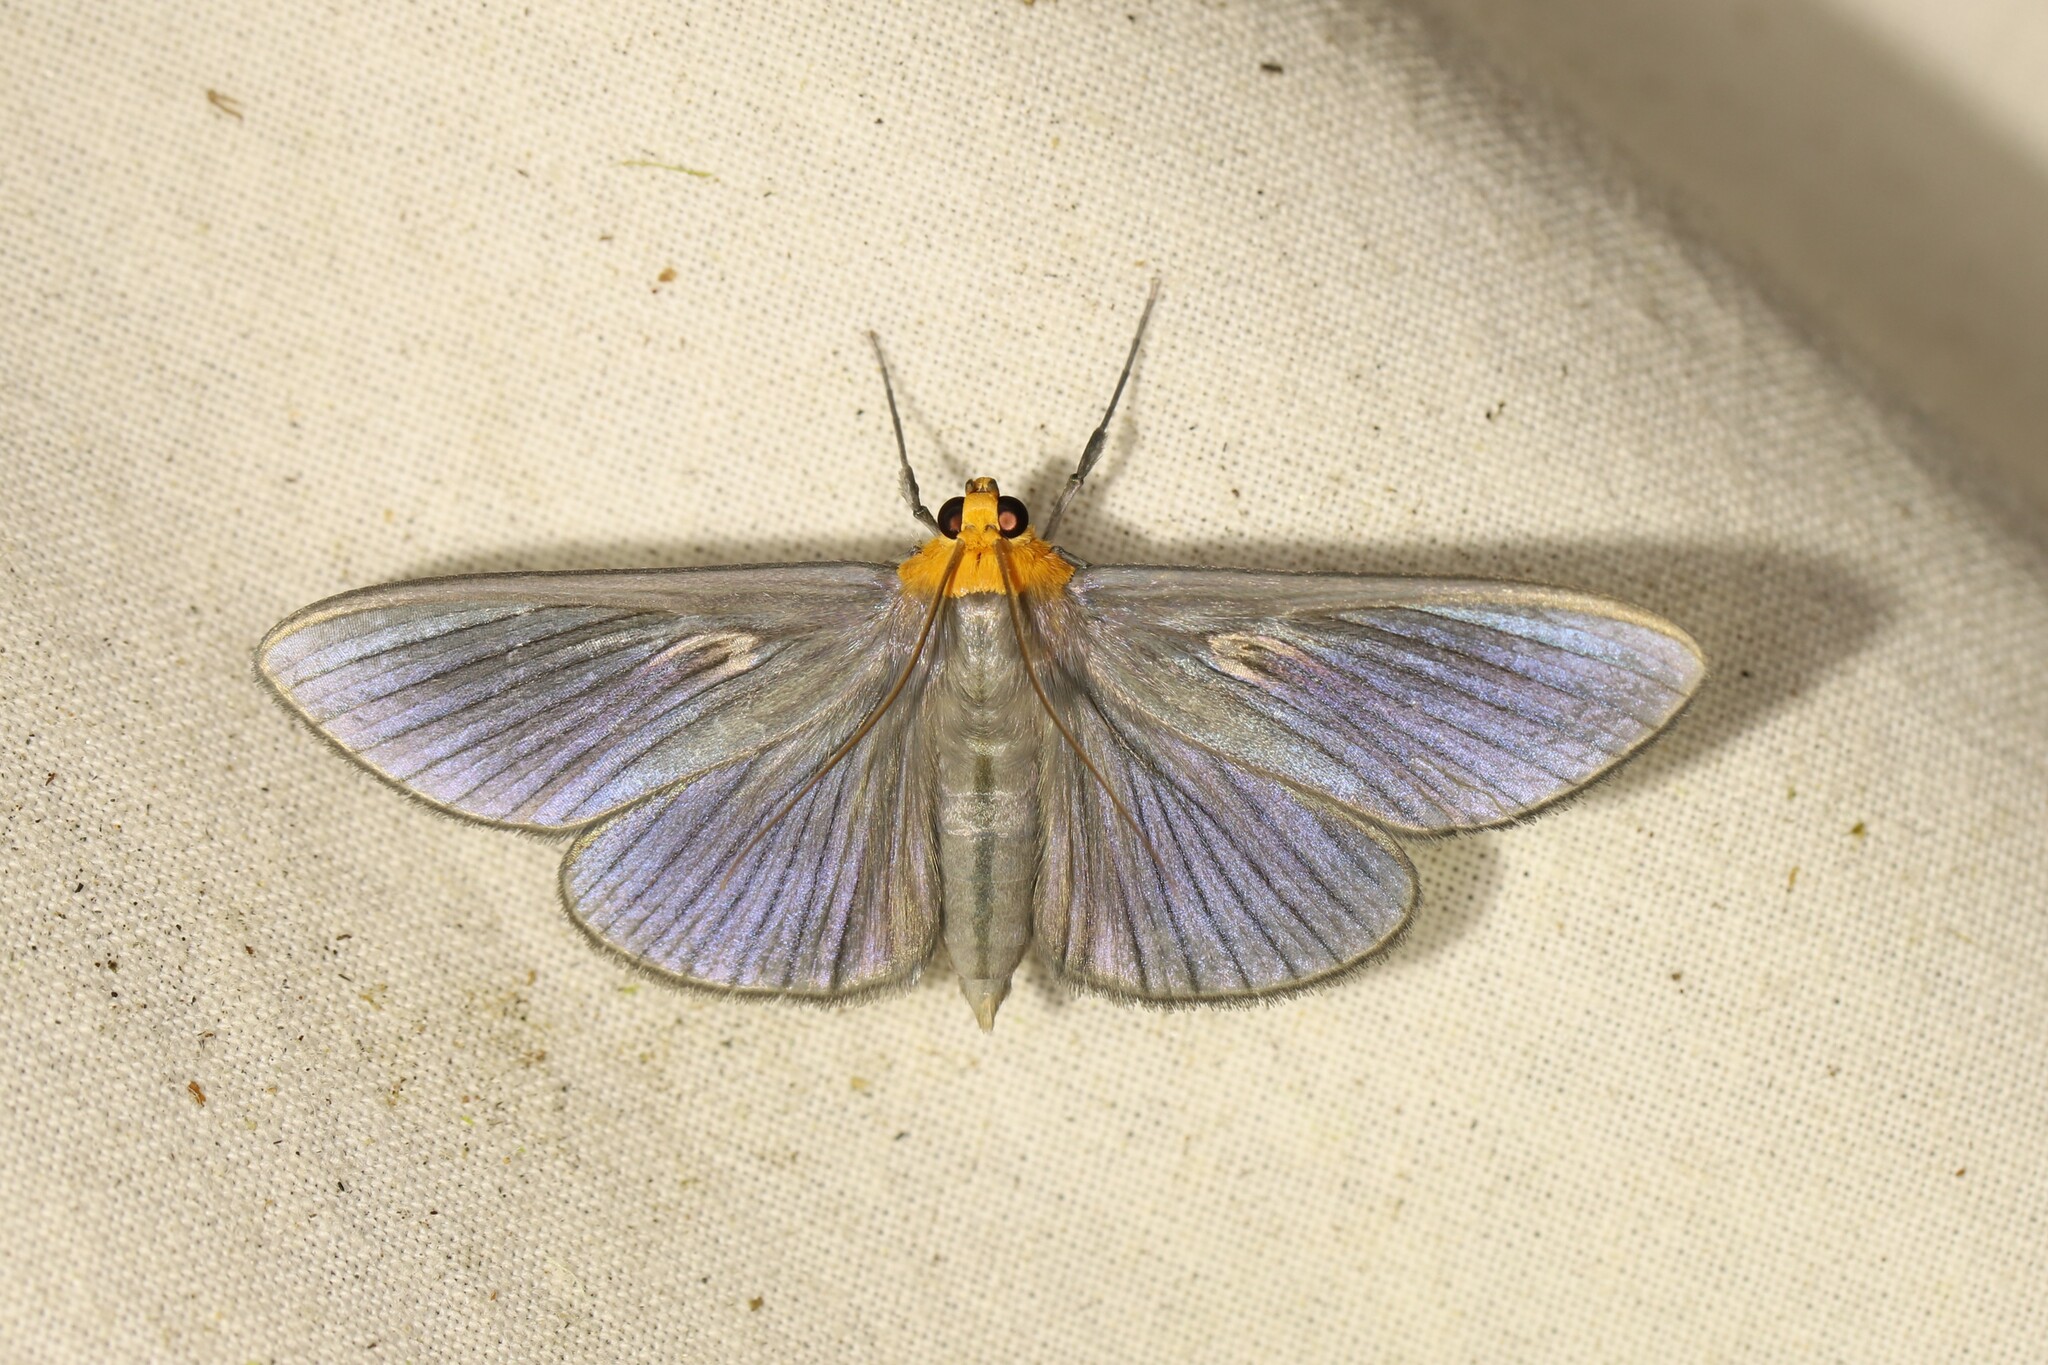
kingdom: Animalia
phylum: Arthropoda
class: Insecta
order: Lepidoptera
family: Crambidae
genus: Cirrhocephalina
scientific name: Cirrhocephalina eucharisalis
